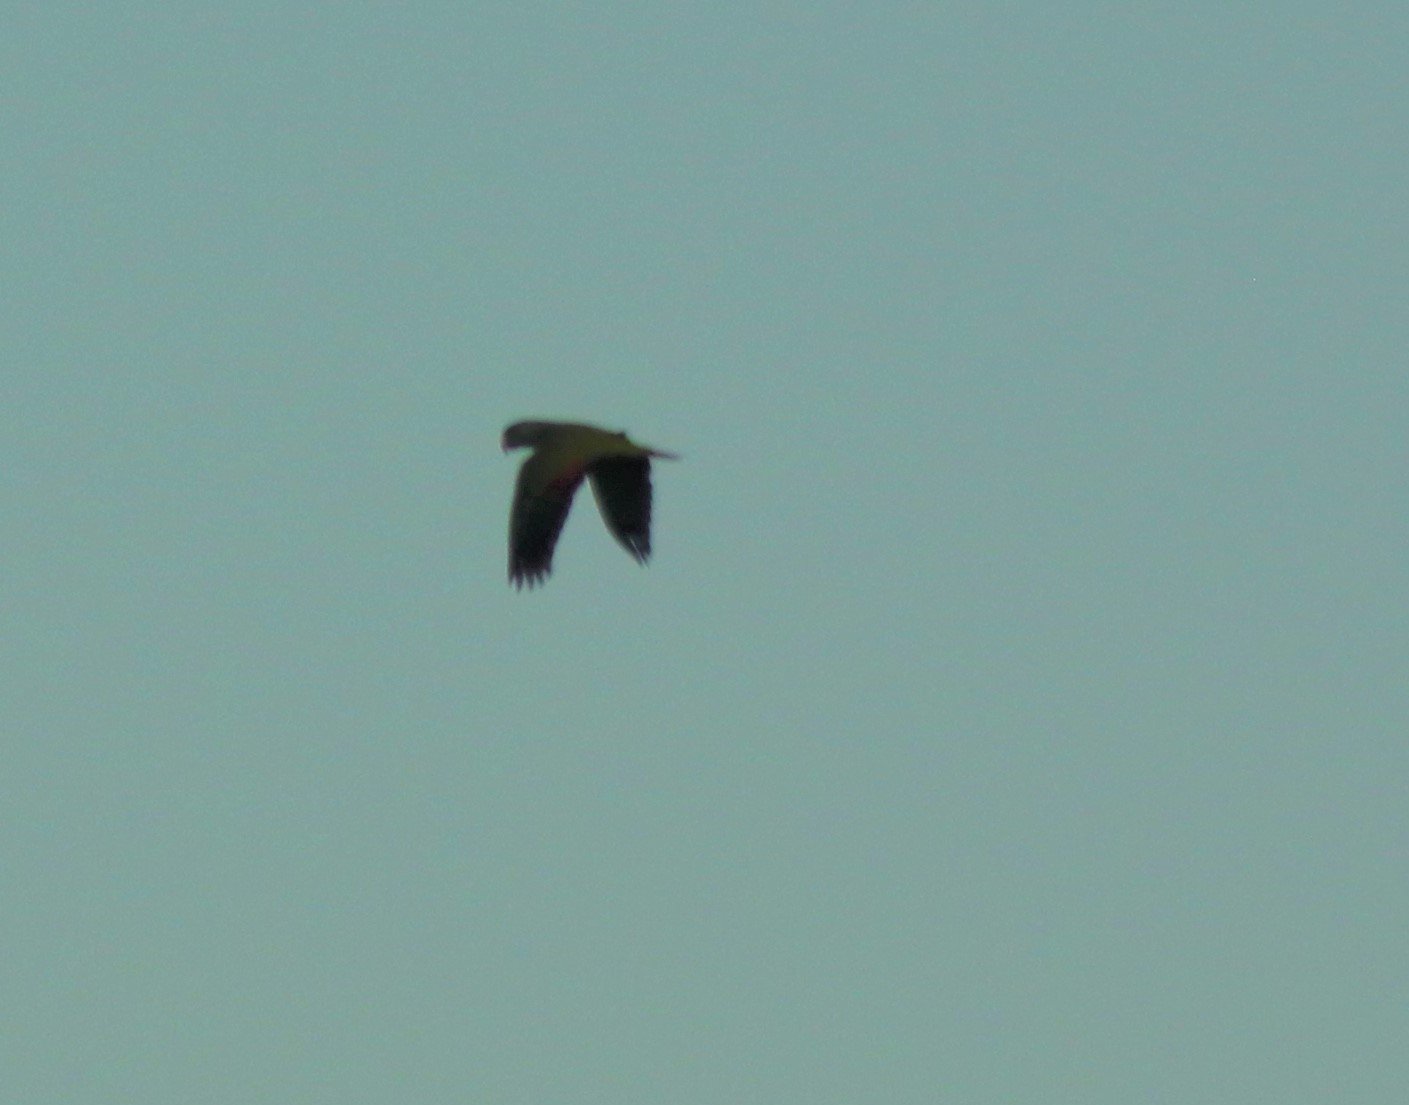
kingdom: Animalia
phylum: Chordata
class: Aves
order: Psittaciformes
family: Psittacidae
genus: Amazona
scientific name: Amazona
